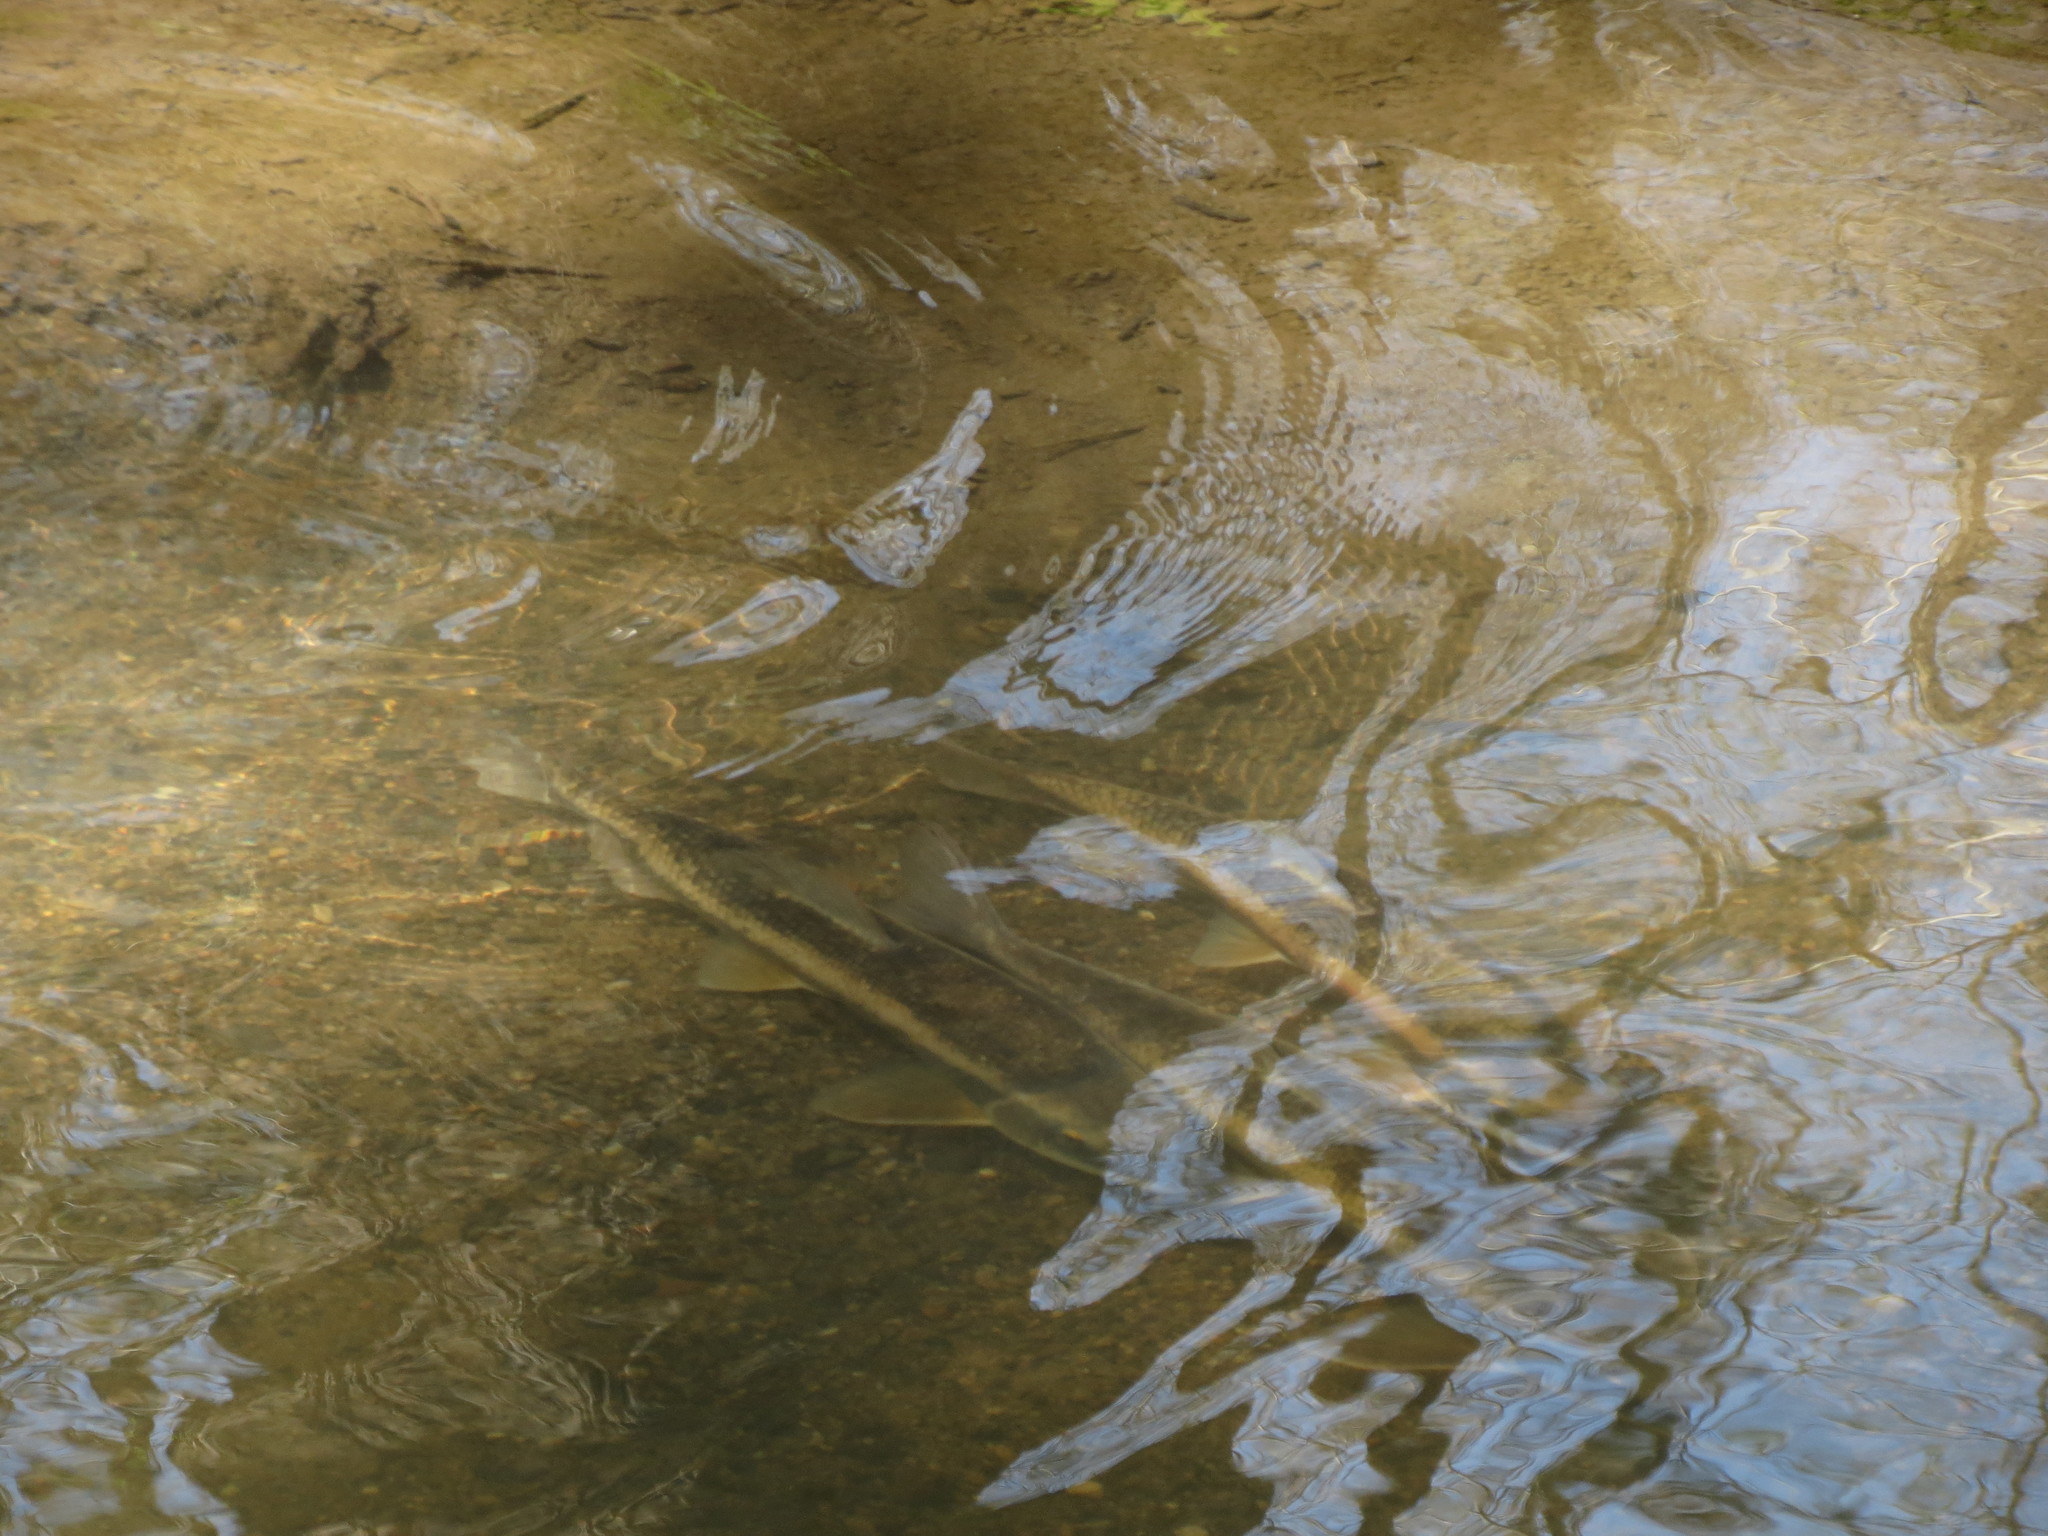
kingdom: Animalia
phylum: Chordata
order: Cypriniformes
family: Catostomidae
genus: Catostomus
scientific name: Catostomus commersonii
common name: White sucker
